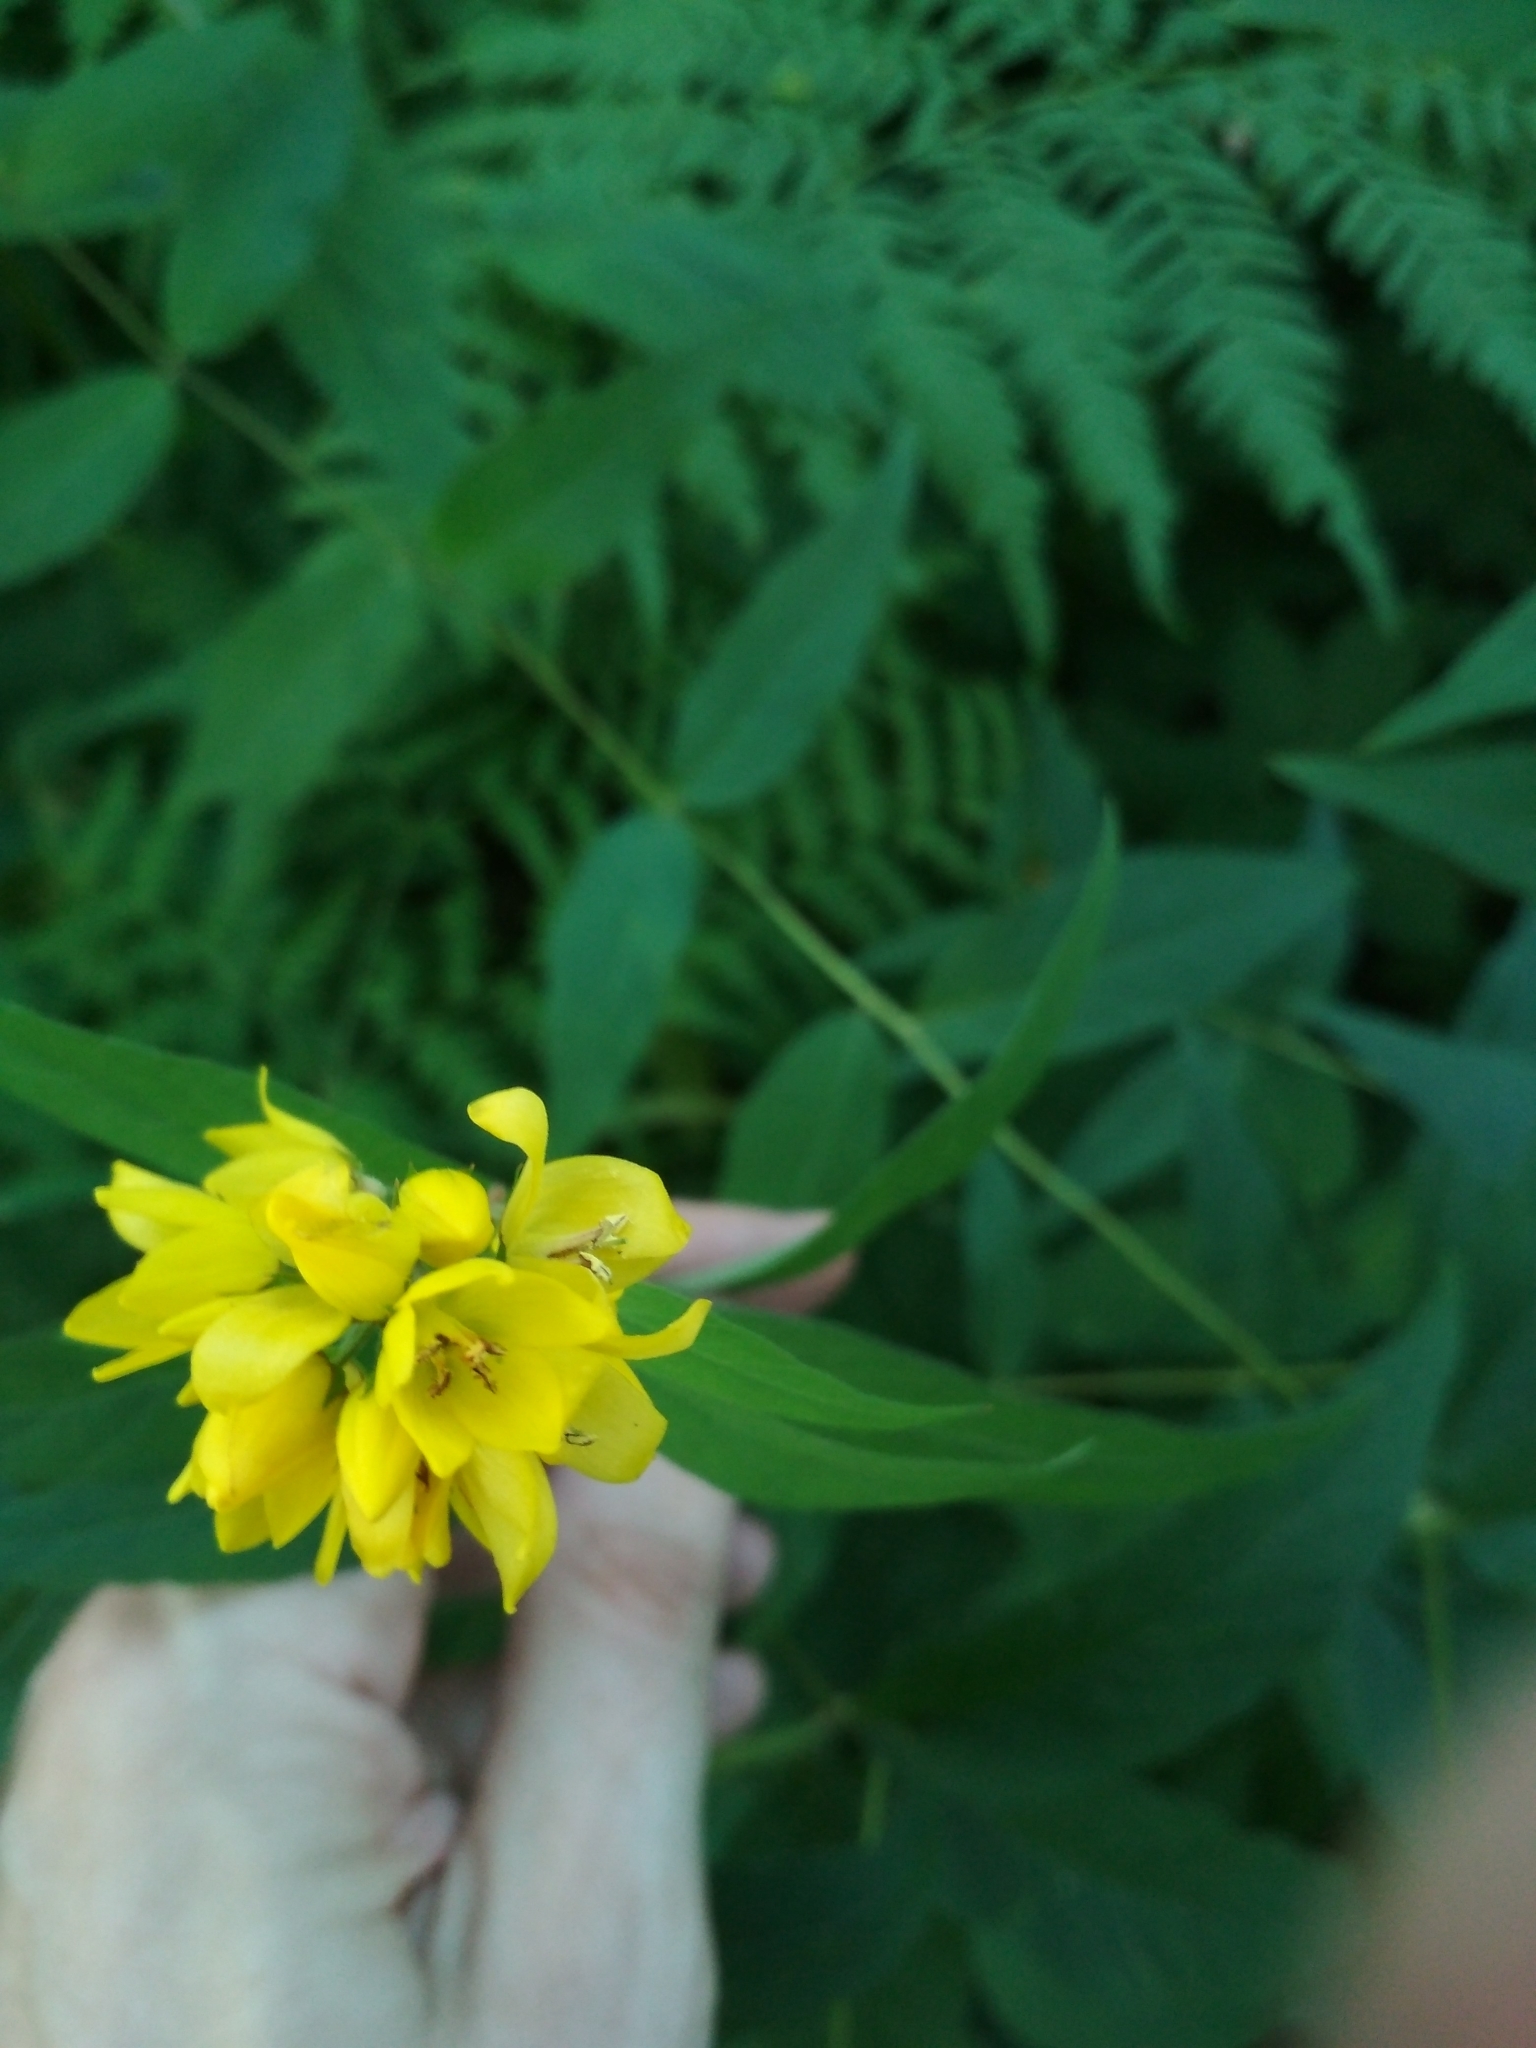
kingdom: Plantae
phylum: Tracheophyta
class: Magnoliopsida
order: Ericales
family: Primulaceae
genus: Lysimachia
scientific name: Lysimachia vulgaris
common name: Yellow loosestrife
